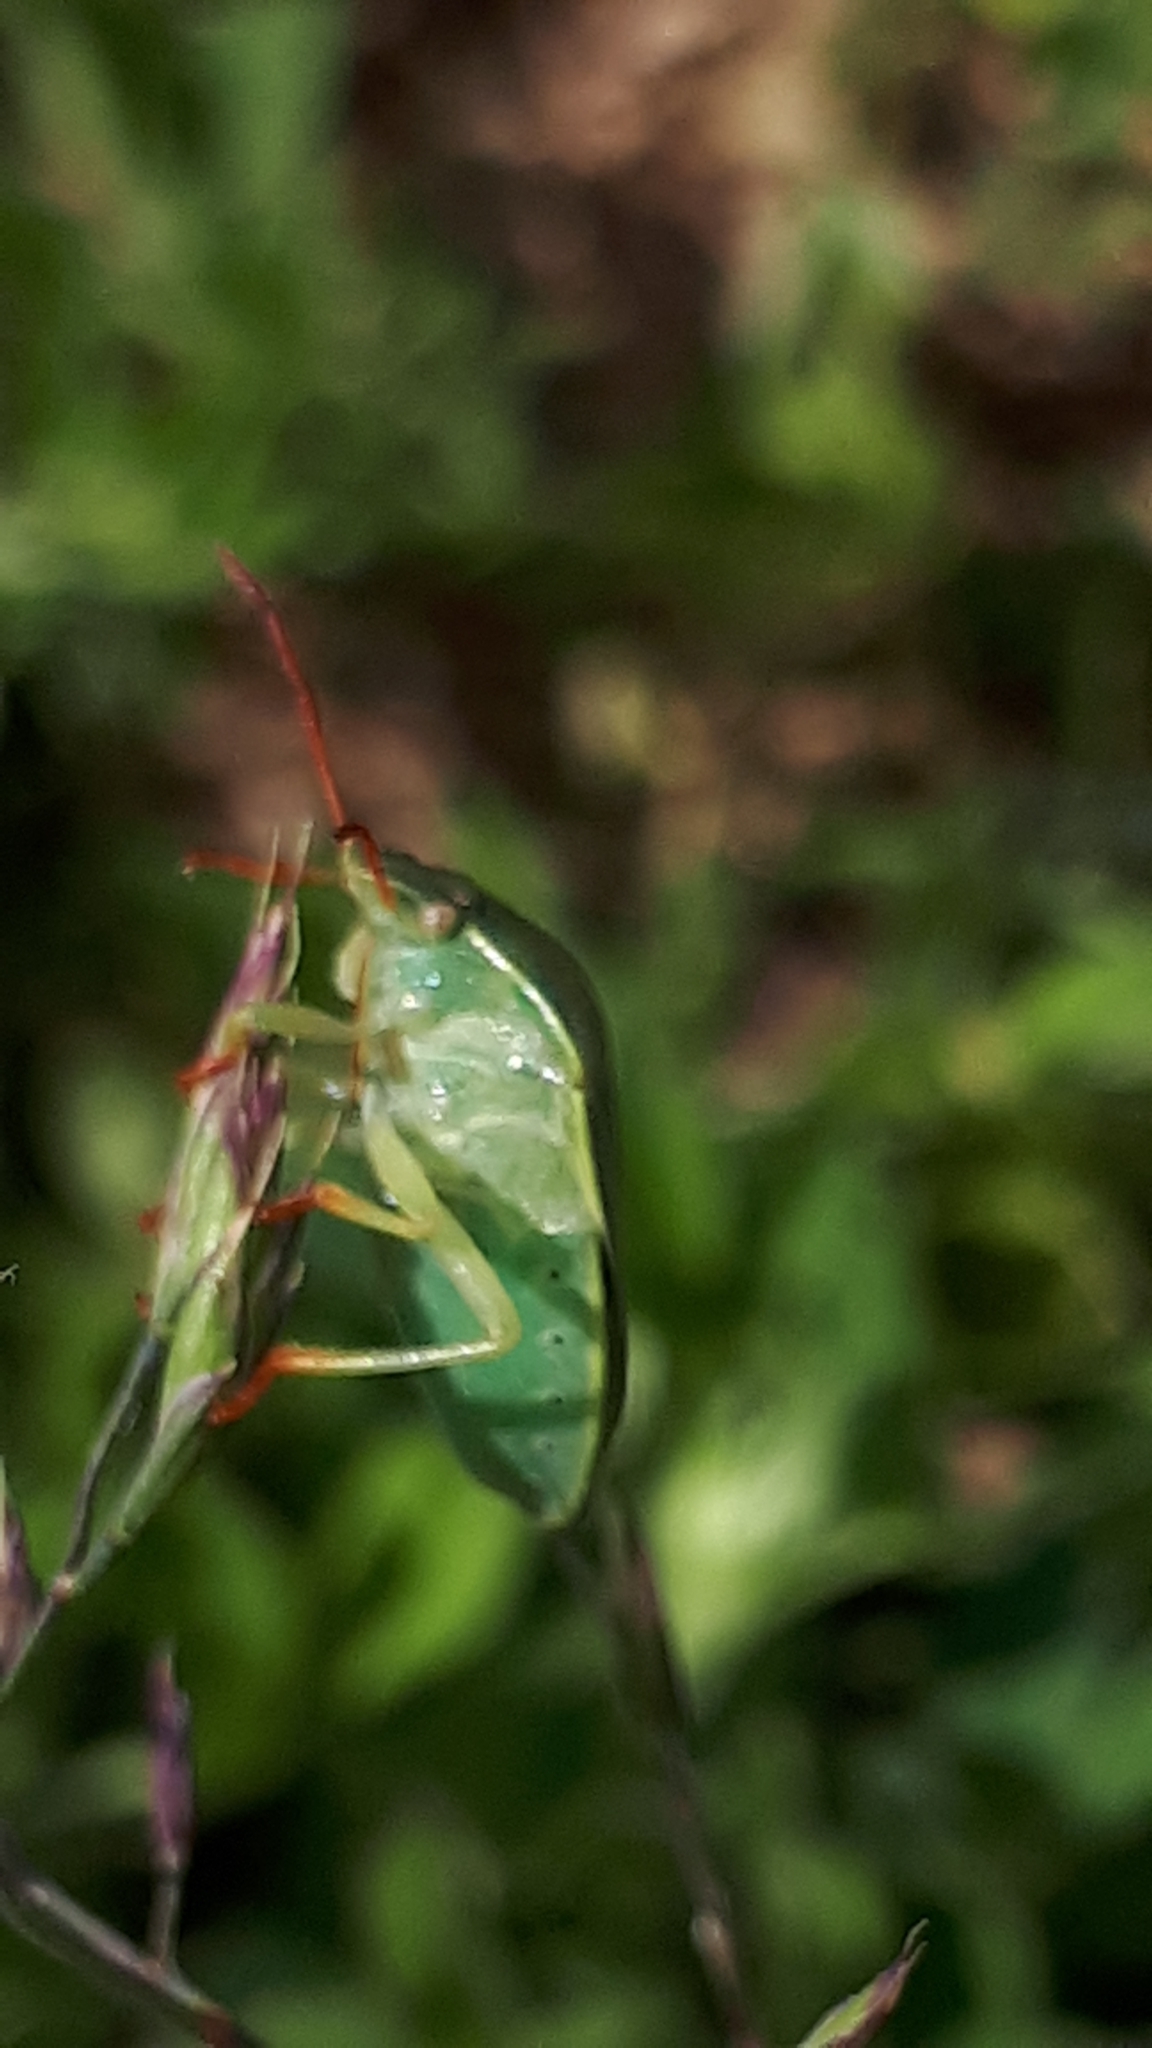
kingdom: Animalia
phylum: Arthropoda
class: Insecta
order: Hemiptera
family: Pentatomidae
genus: Piezodorus
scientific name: Piezodorus lituratus
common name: Stink bug
